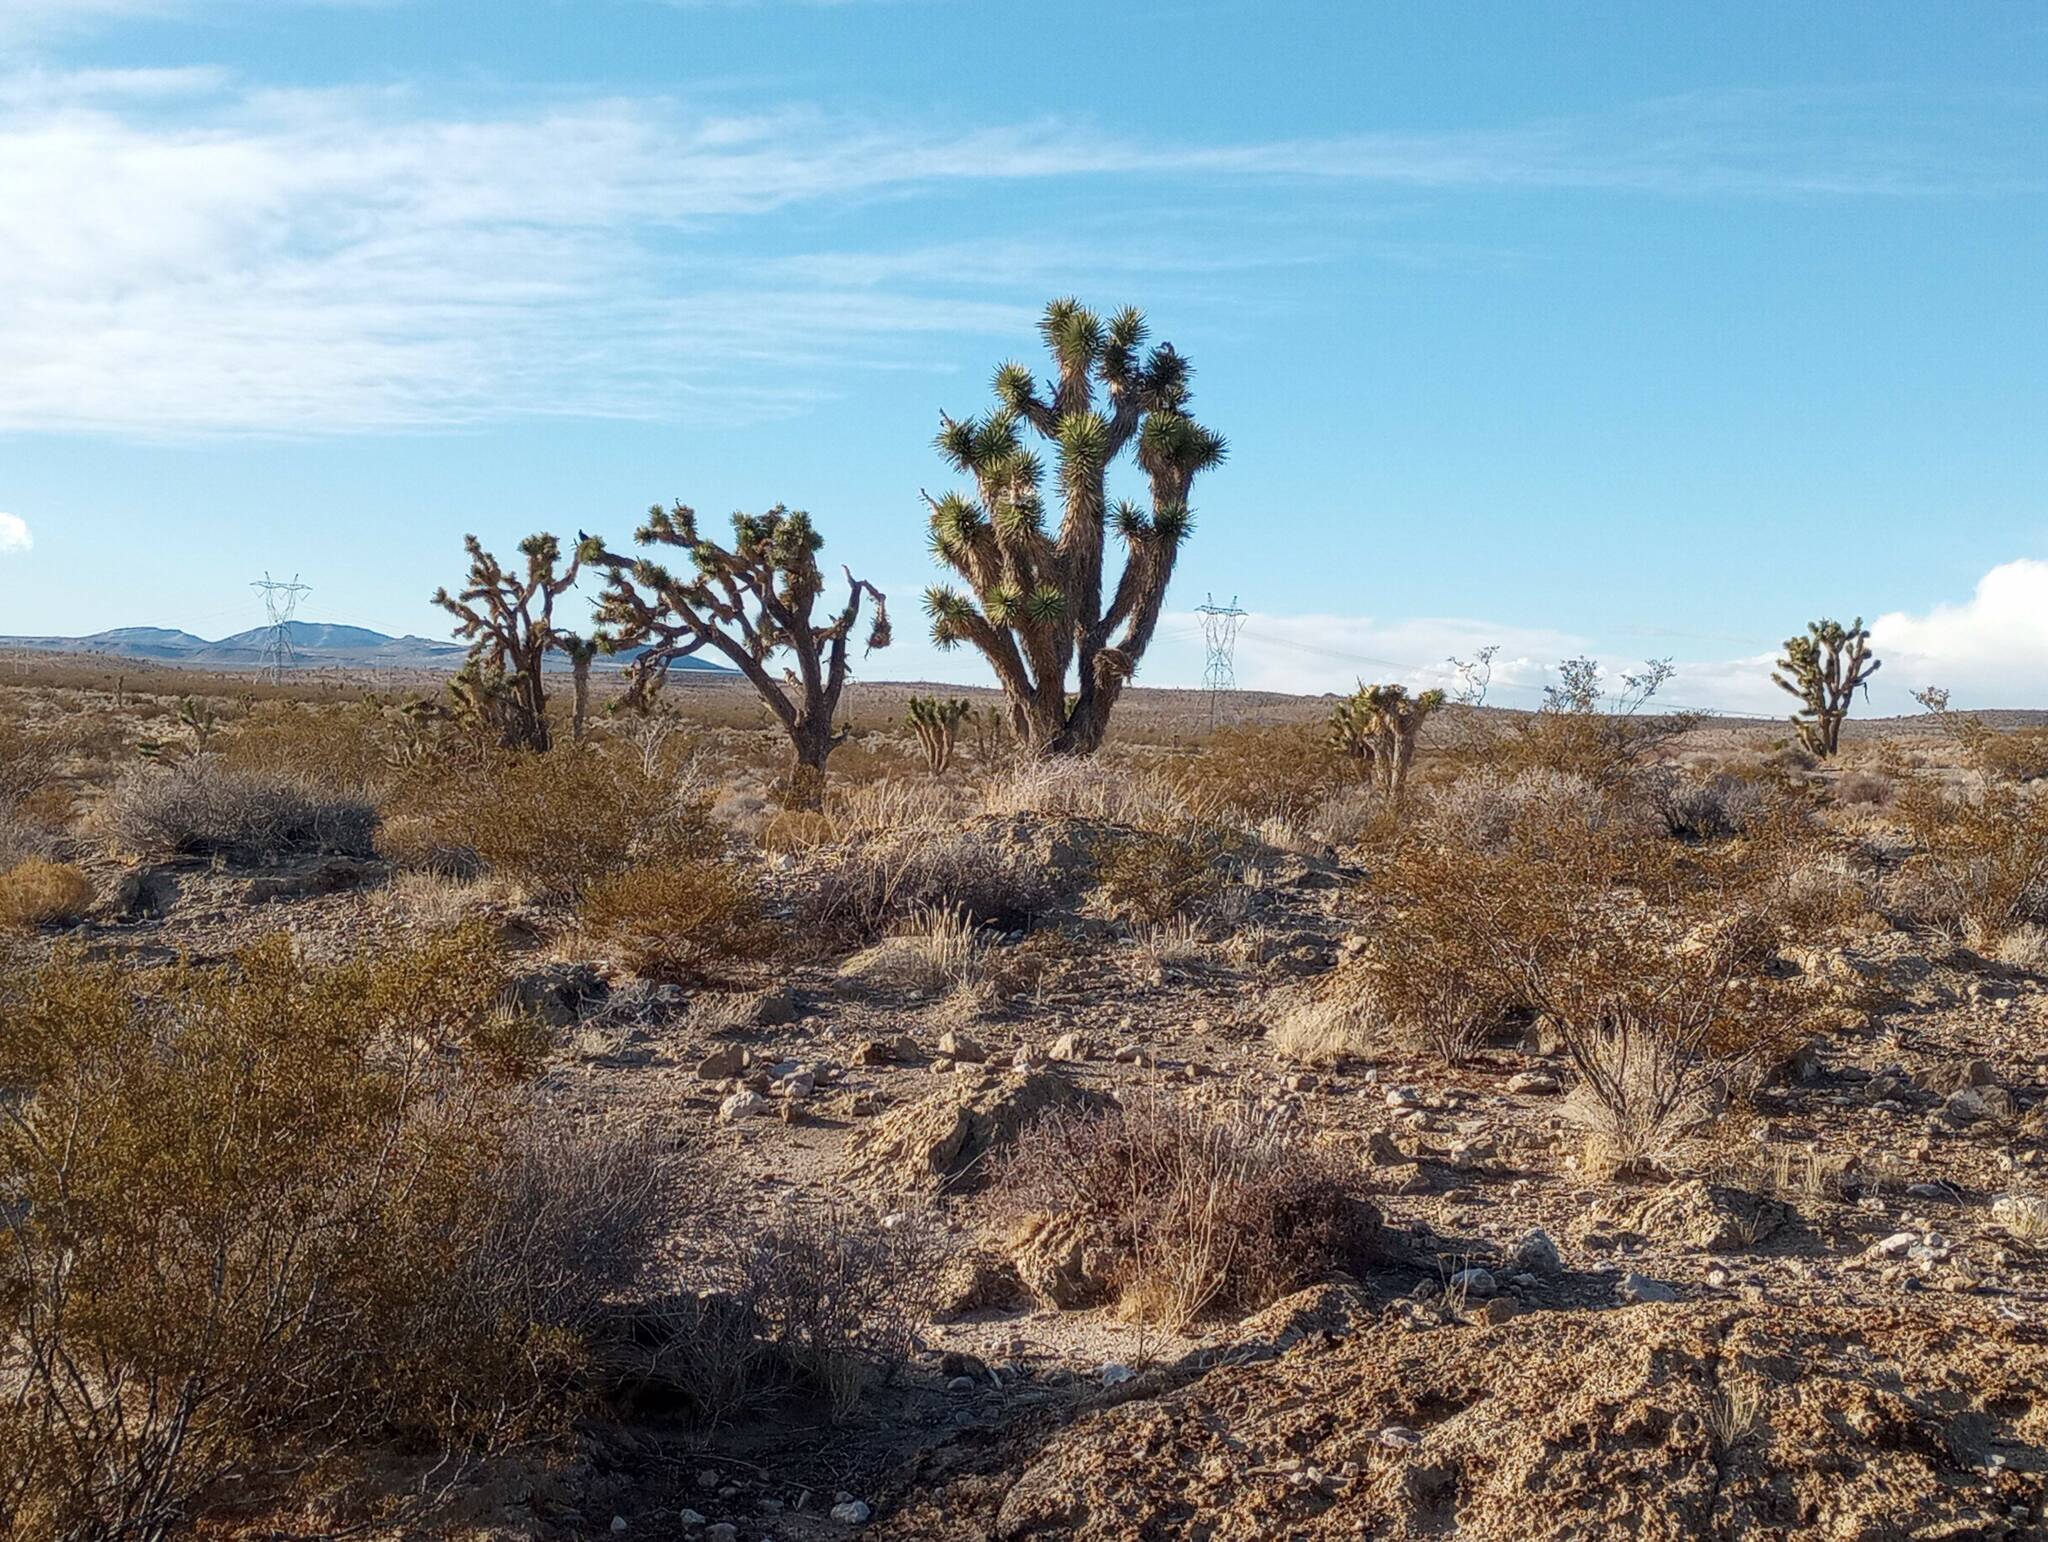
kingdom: Plantae
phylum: Tracheophyta
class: Liliopsida
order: Asparagales
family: Asparagaceae
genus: Yucca
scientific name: Yucca brevifolia
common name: Joshua tree
